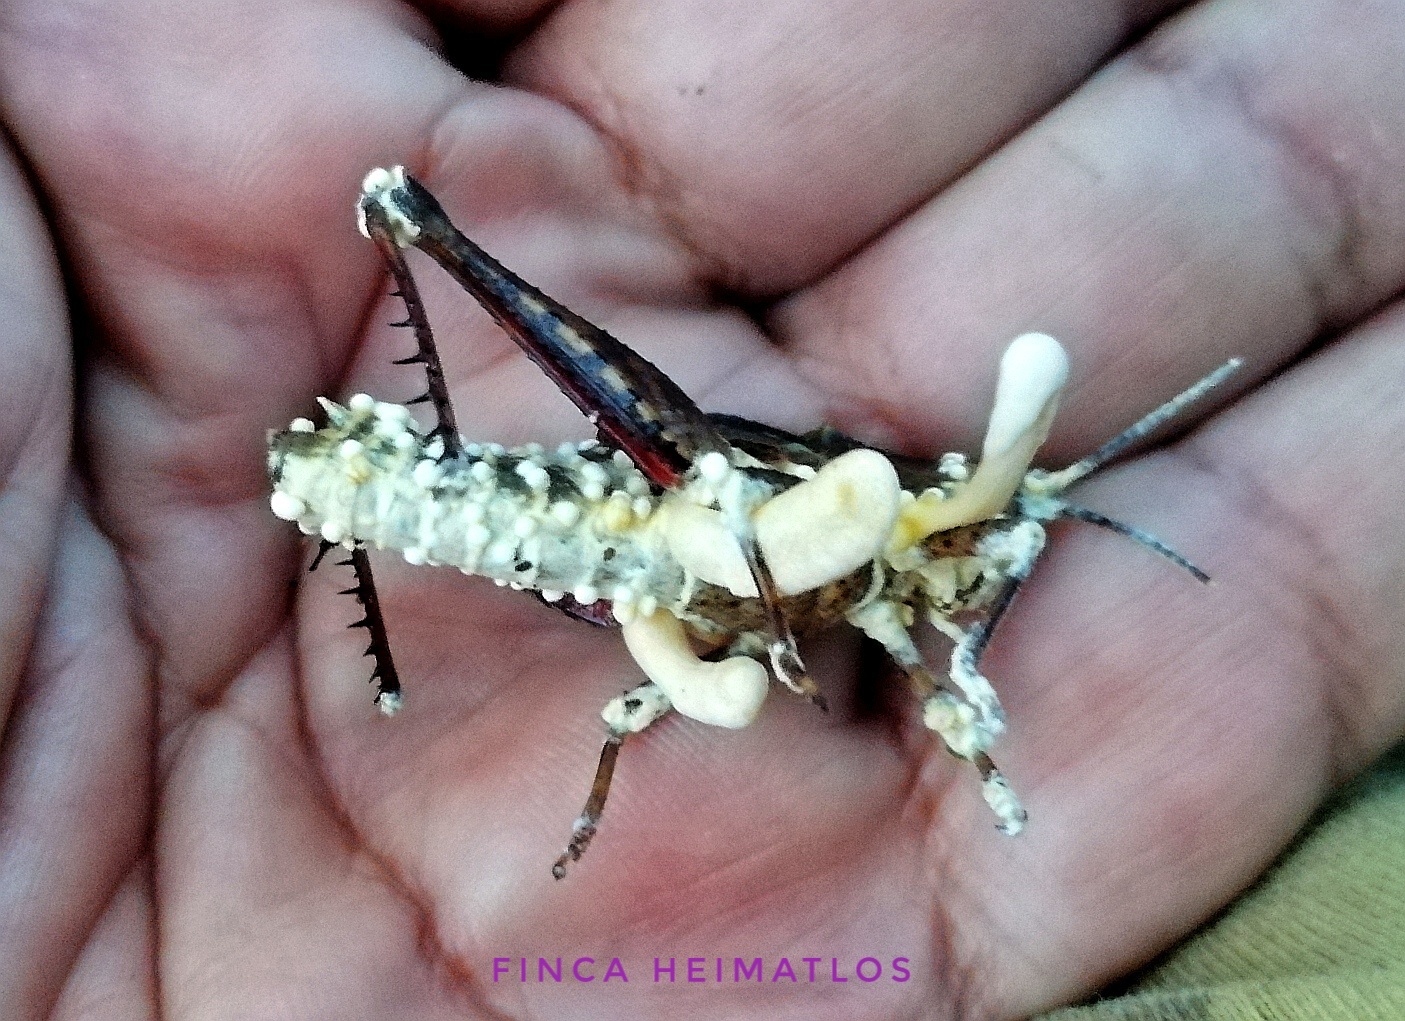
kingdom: Fungi
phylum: Ascomycota
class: Sordariomycetes
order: Hypocreales
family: Cordycipitaceae
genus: Beauveria
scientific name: Beauveria locustiphila
